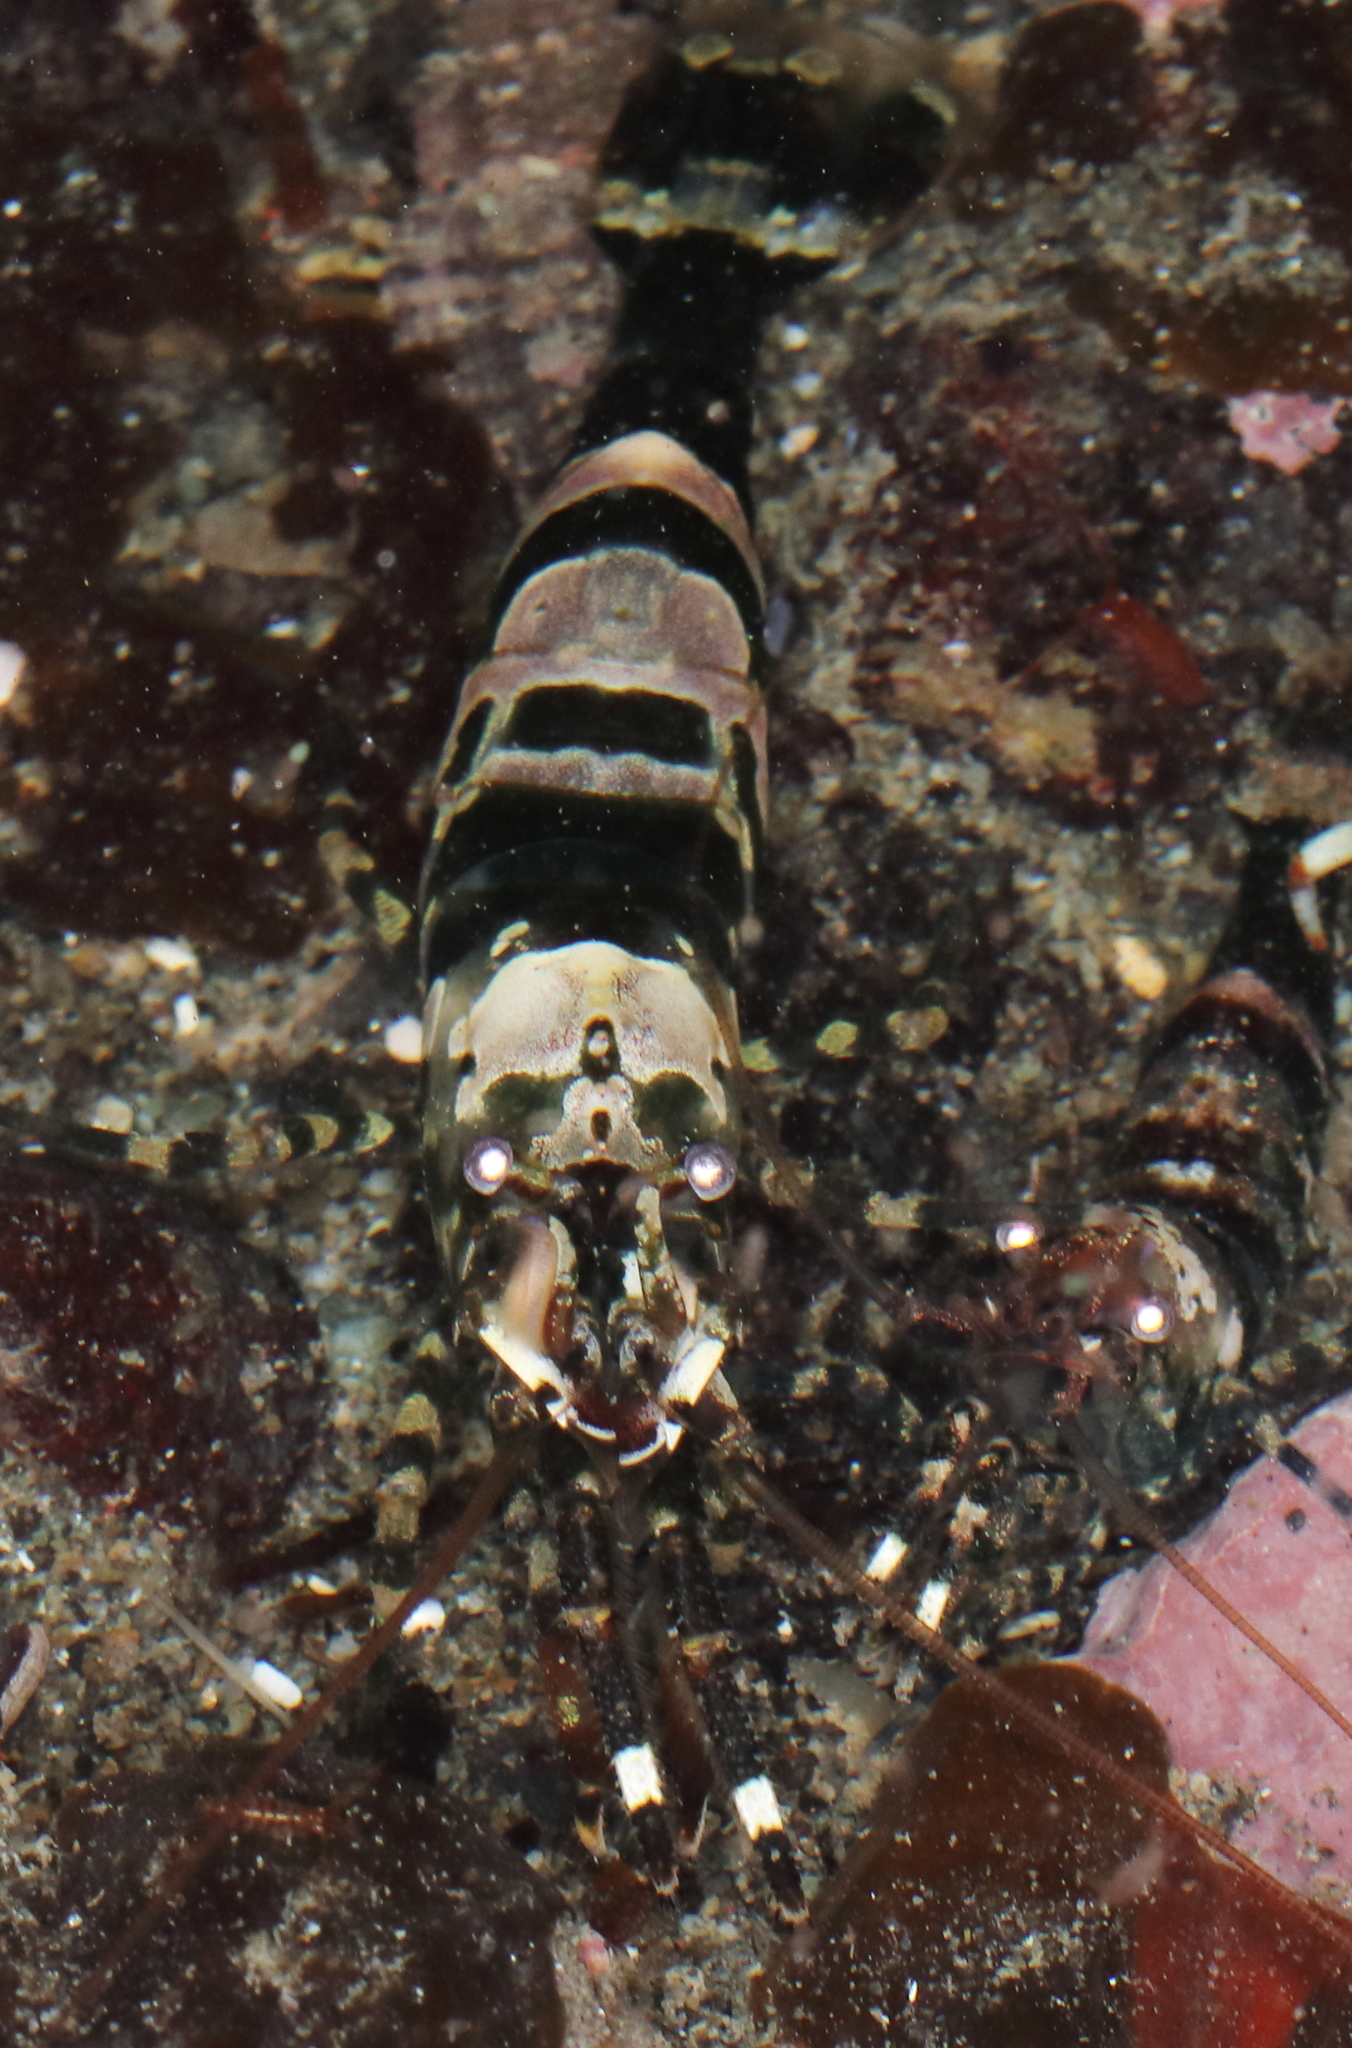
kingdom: Animalia
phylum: Arthropoda
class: Malacostraca
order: Decapoda
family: Thoridae
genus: Heptacarpus
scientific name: Heptacarpus brevirostris
